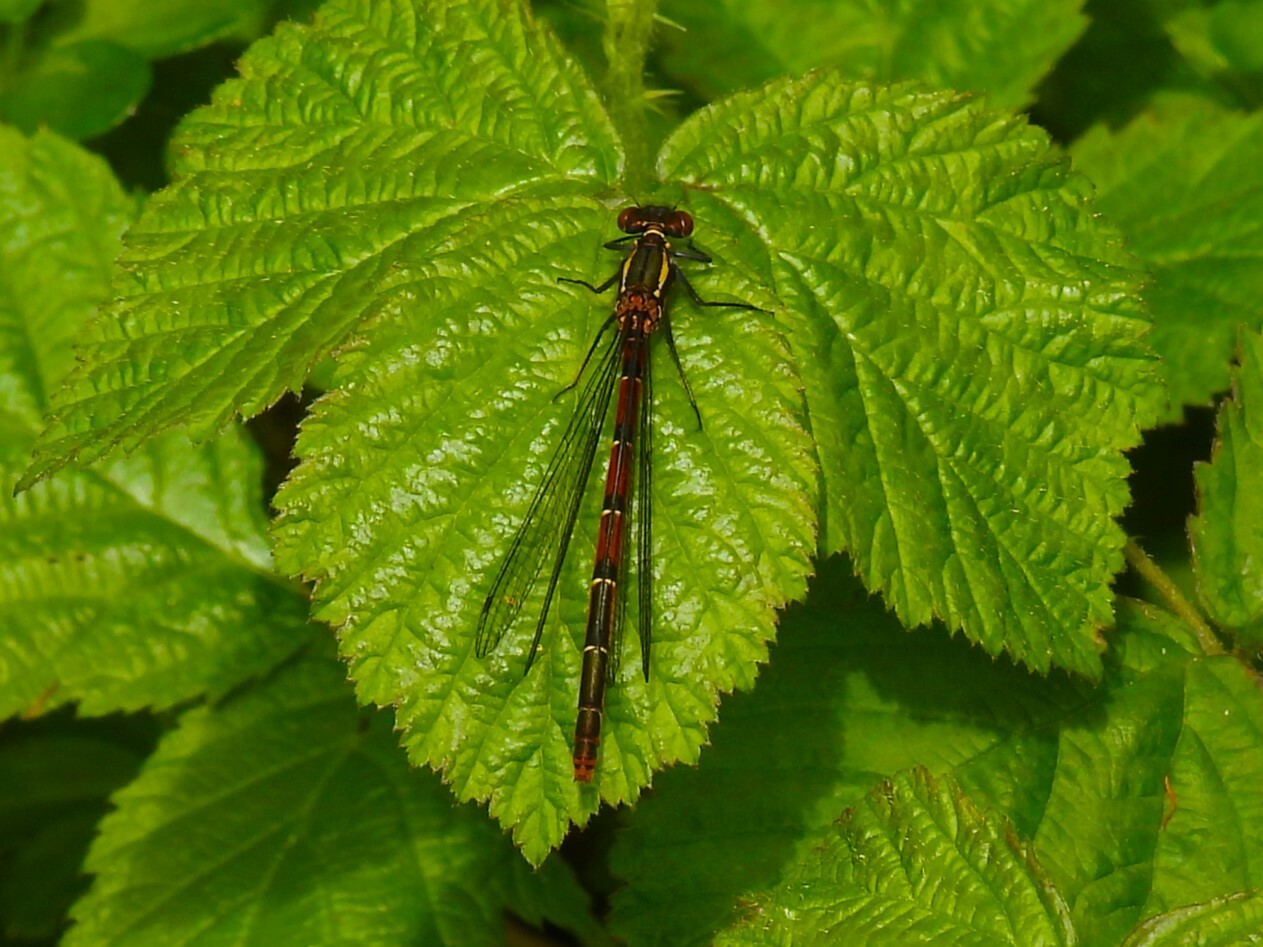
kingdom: Animalia
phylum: Arthropoda
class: Insecta
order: Odonata
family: Coenagrionidae
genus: Pyrrhosoma
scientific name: Pyrrhosoma nymphula
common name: Large red damsel
